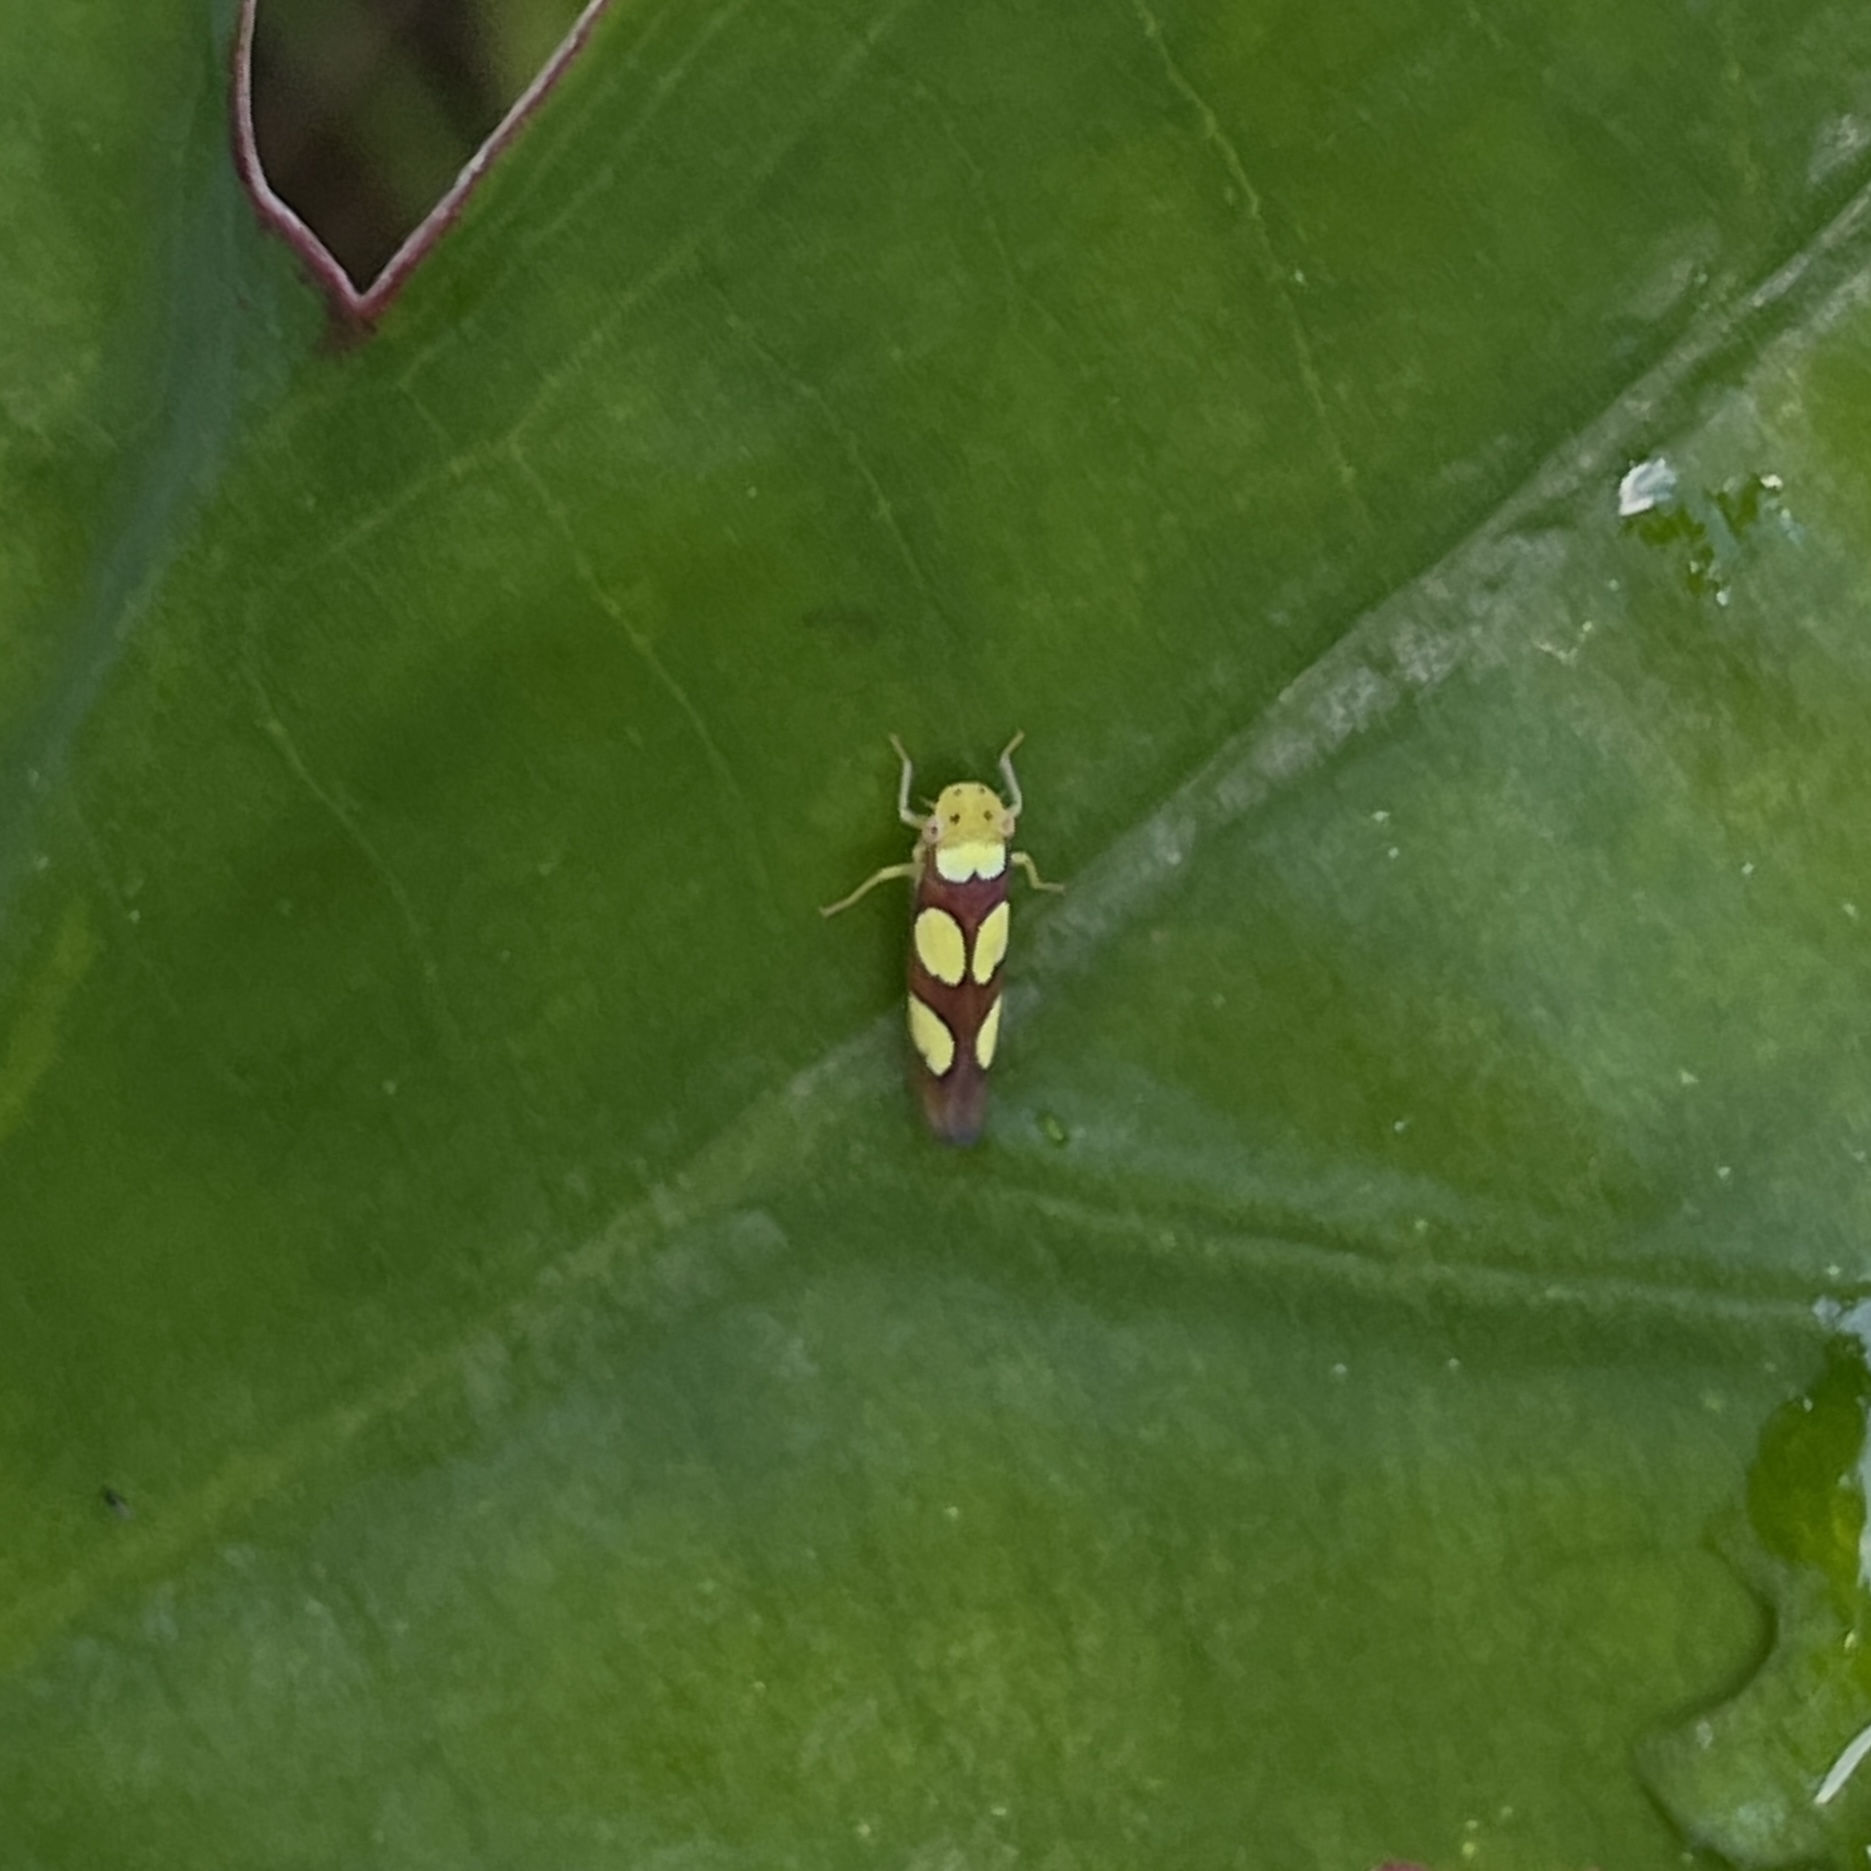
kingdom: Animalia
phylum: Arthropoda
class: Insecta
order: Hemiptera
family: Cicadellidae
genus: Erythrogonia
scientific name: Erythrogonia quadriguttata
